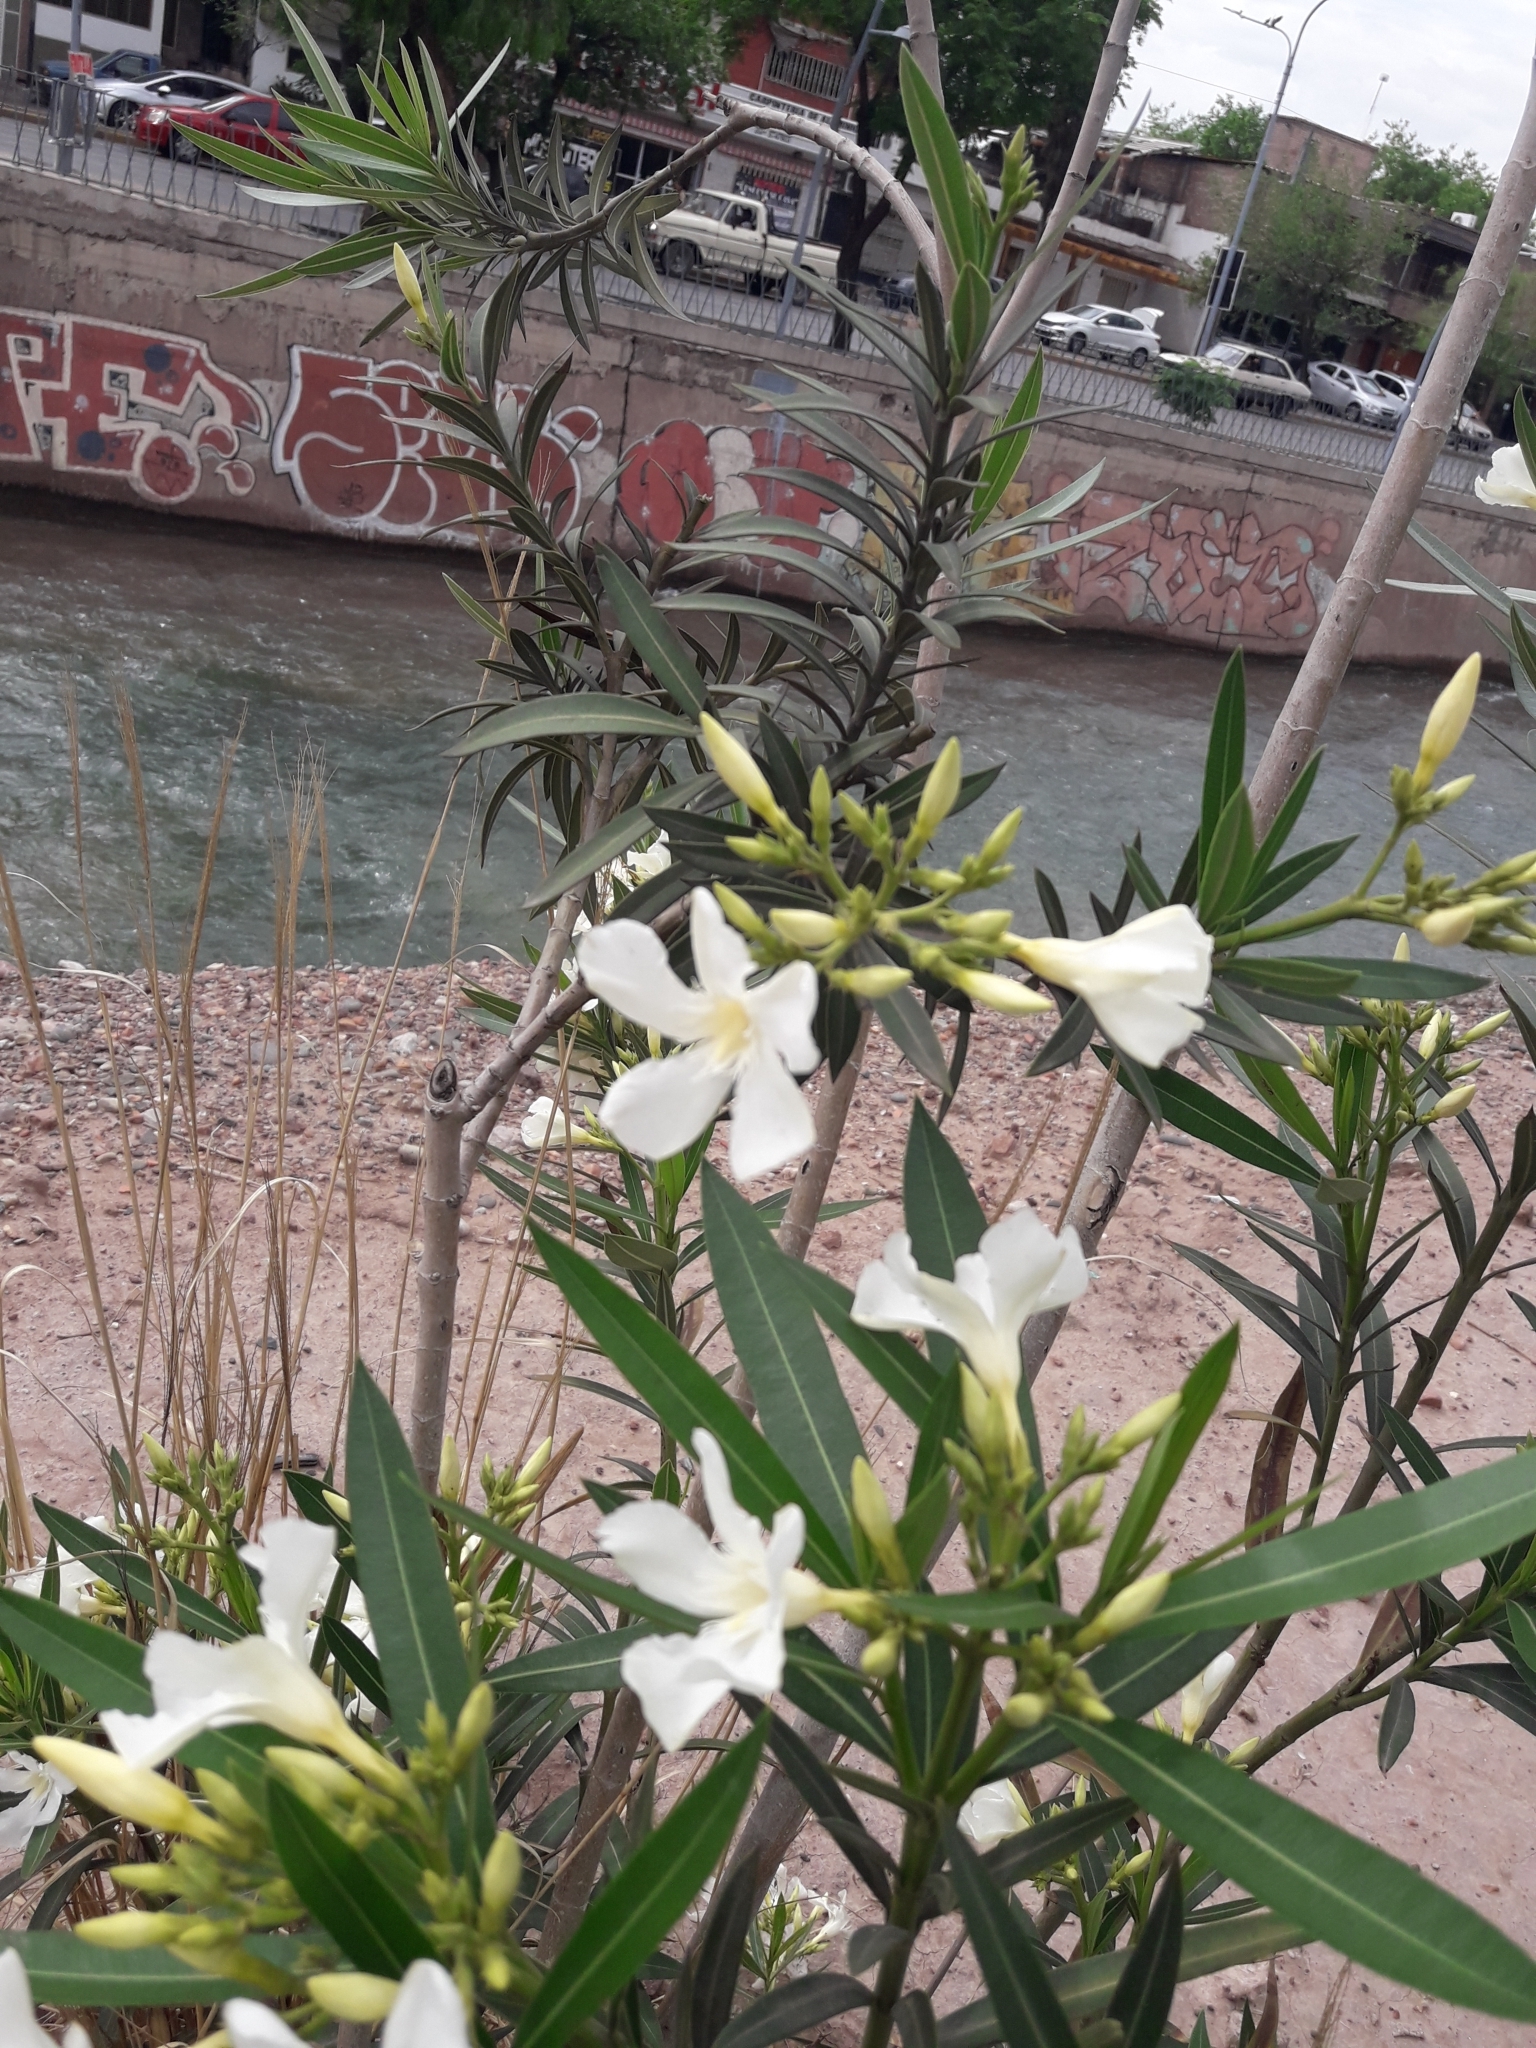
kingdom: Plantae
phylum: Tracheophyta
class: Magnoliopsida
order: Gentianales
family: Apocynaceae
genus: Nerium
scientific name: Nerium oleander
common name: Oleander
